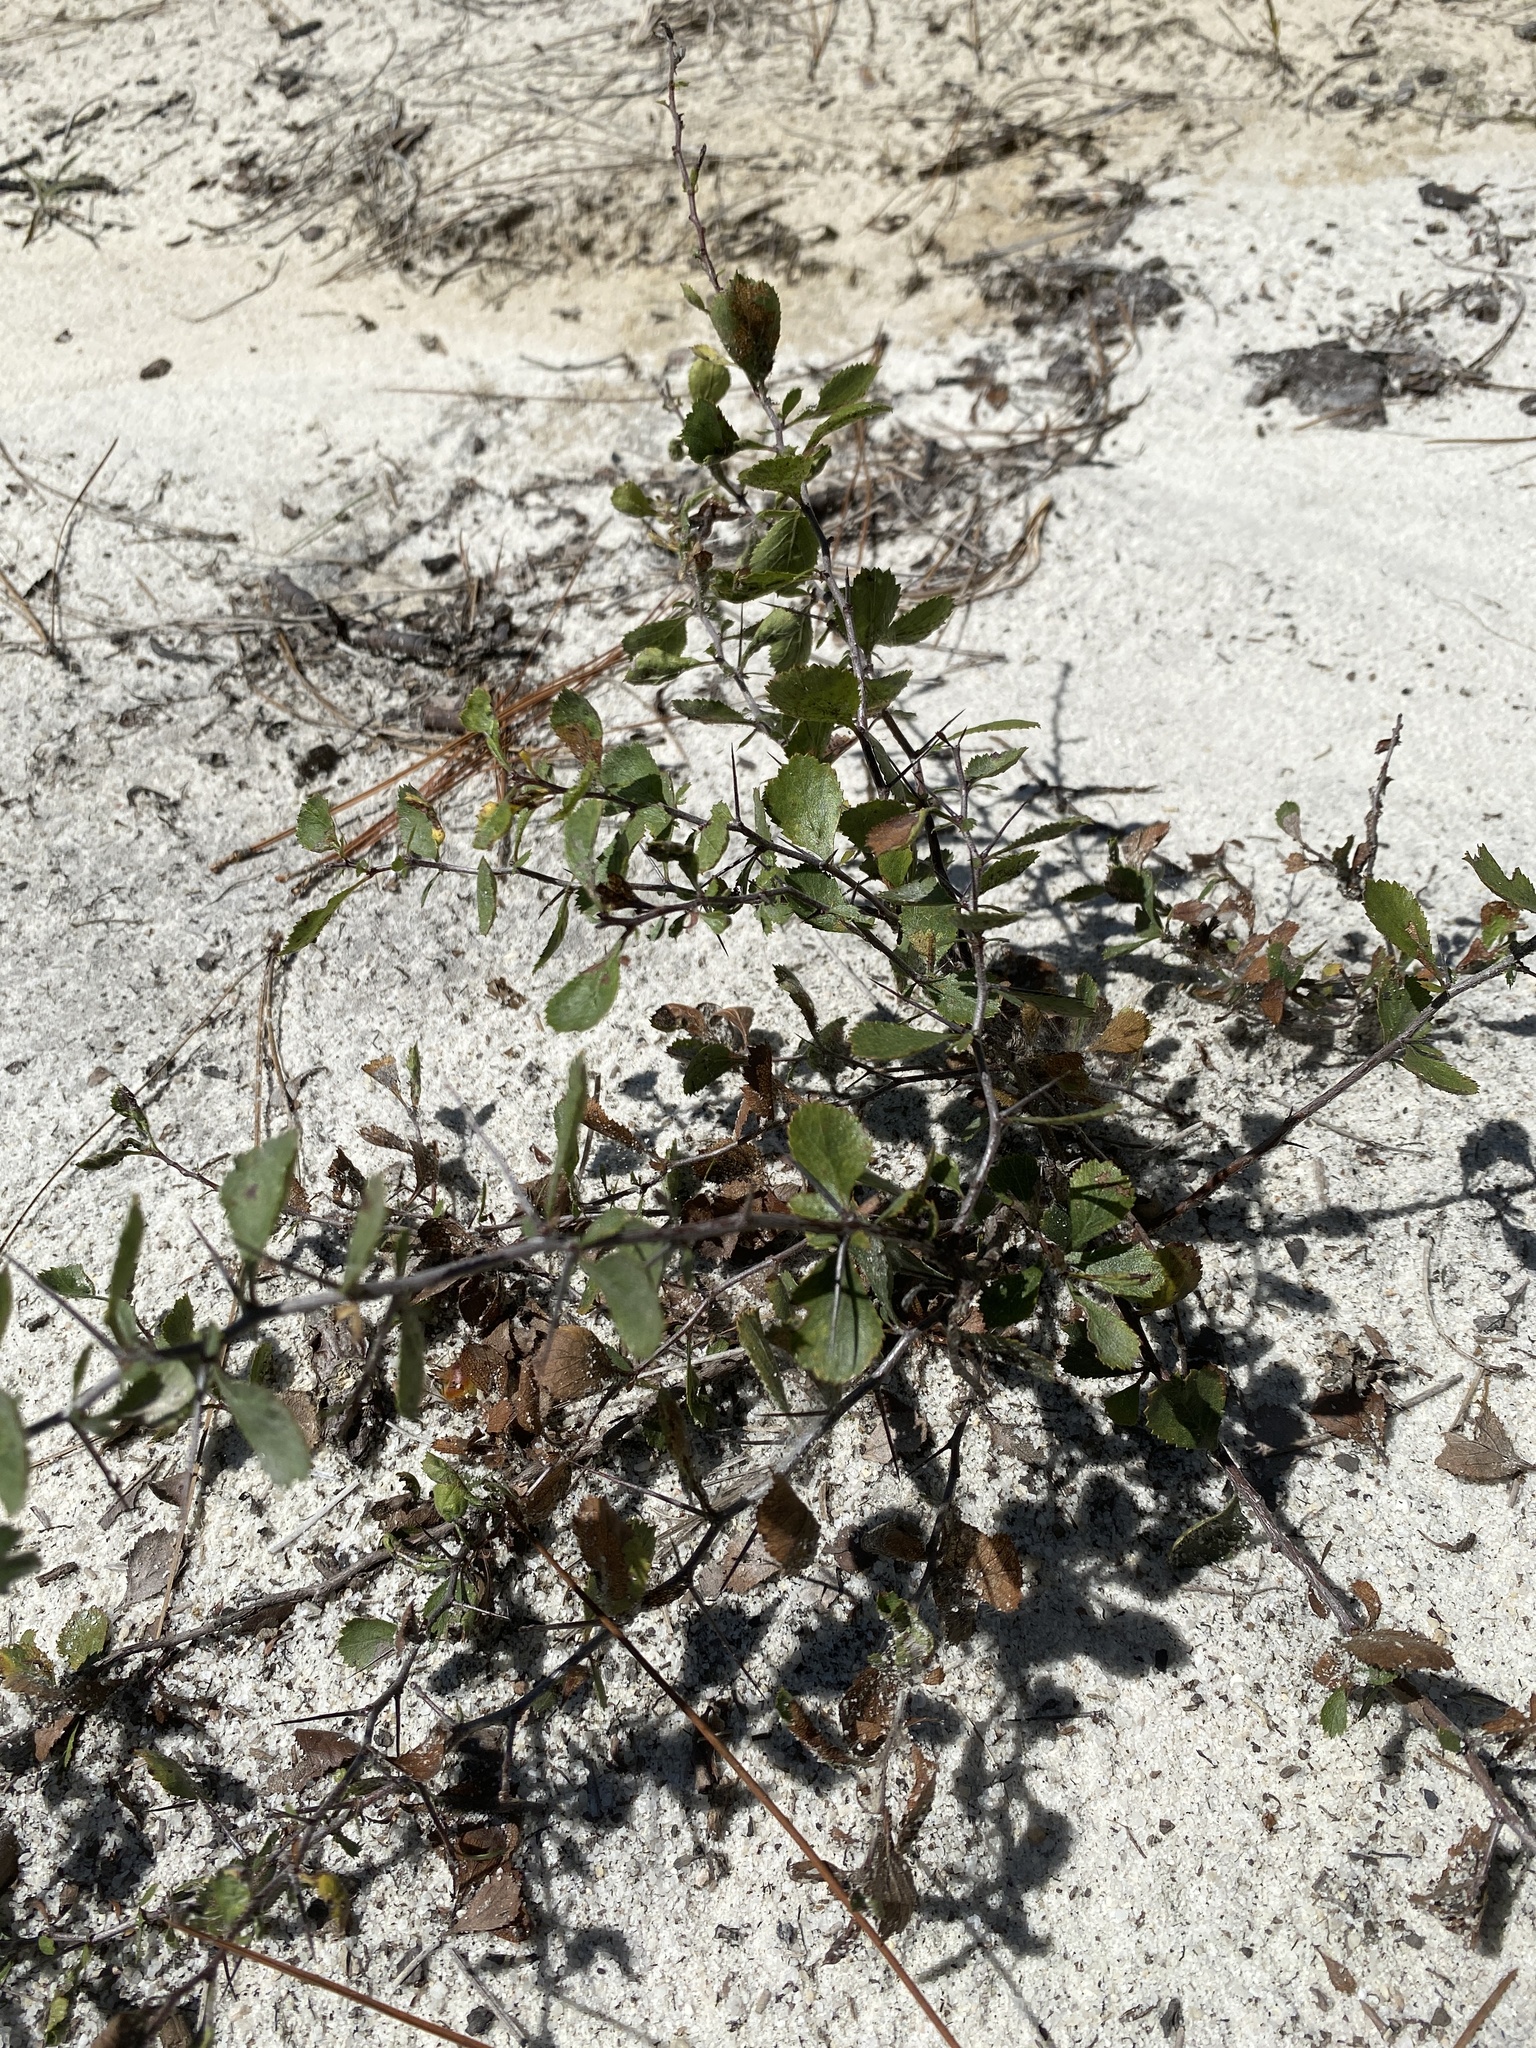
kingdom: Plantae
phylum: Tracheophyta
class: Magnoliopsida
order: Rosales
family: Rosaceae
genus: Crataegus
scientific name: Crataegus munda
